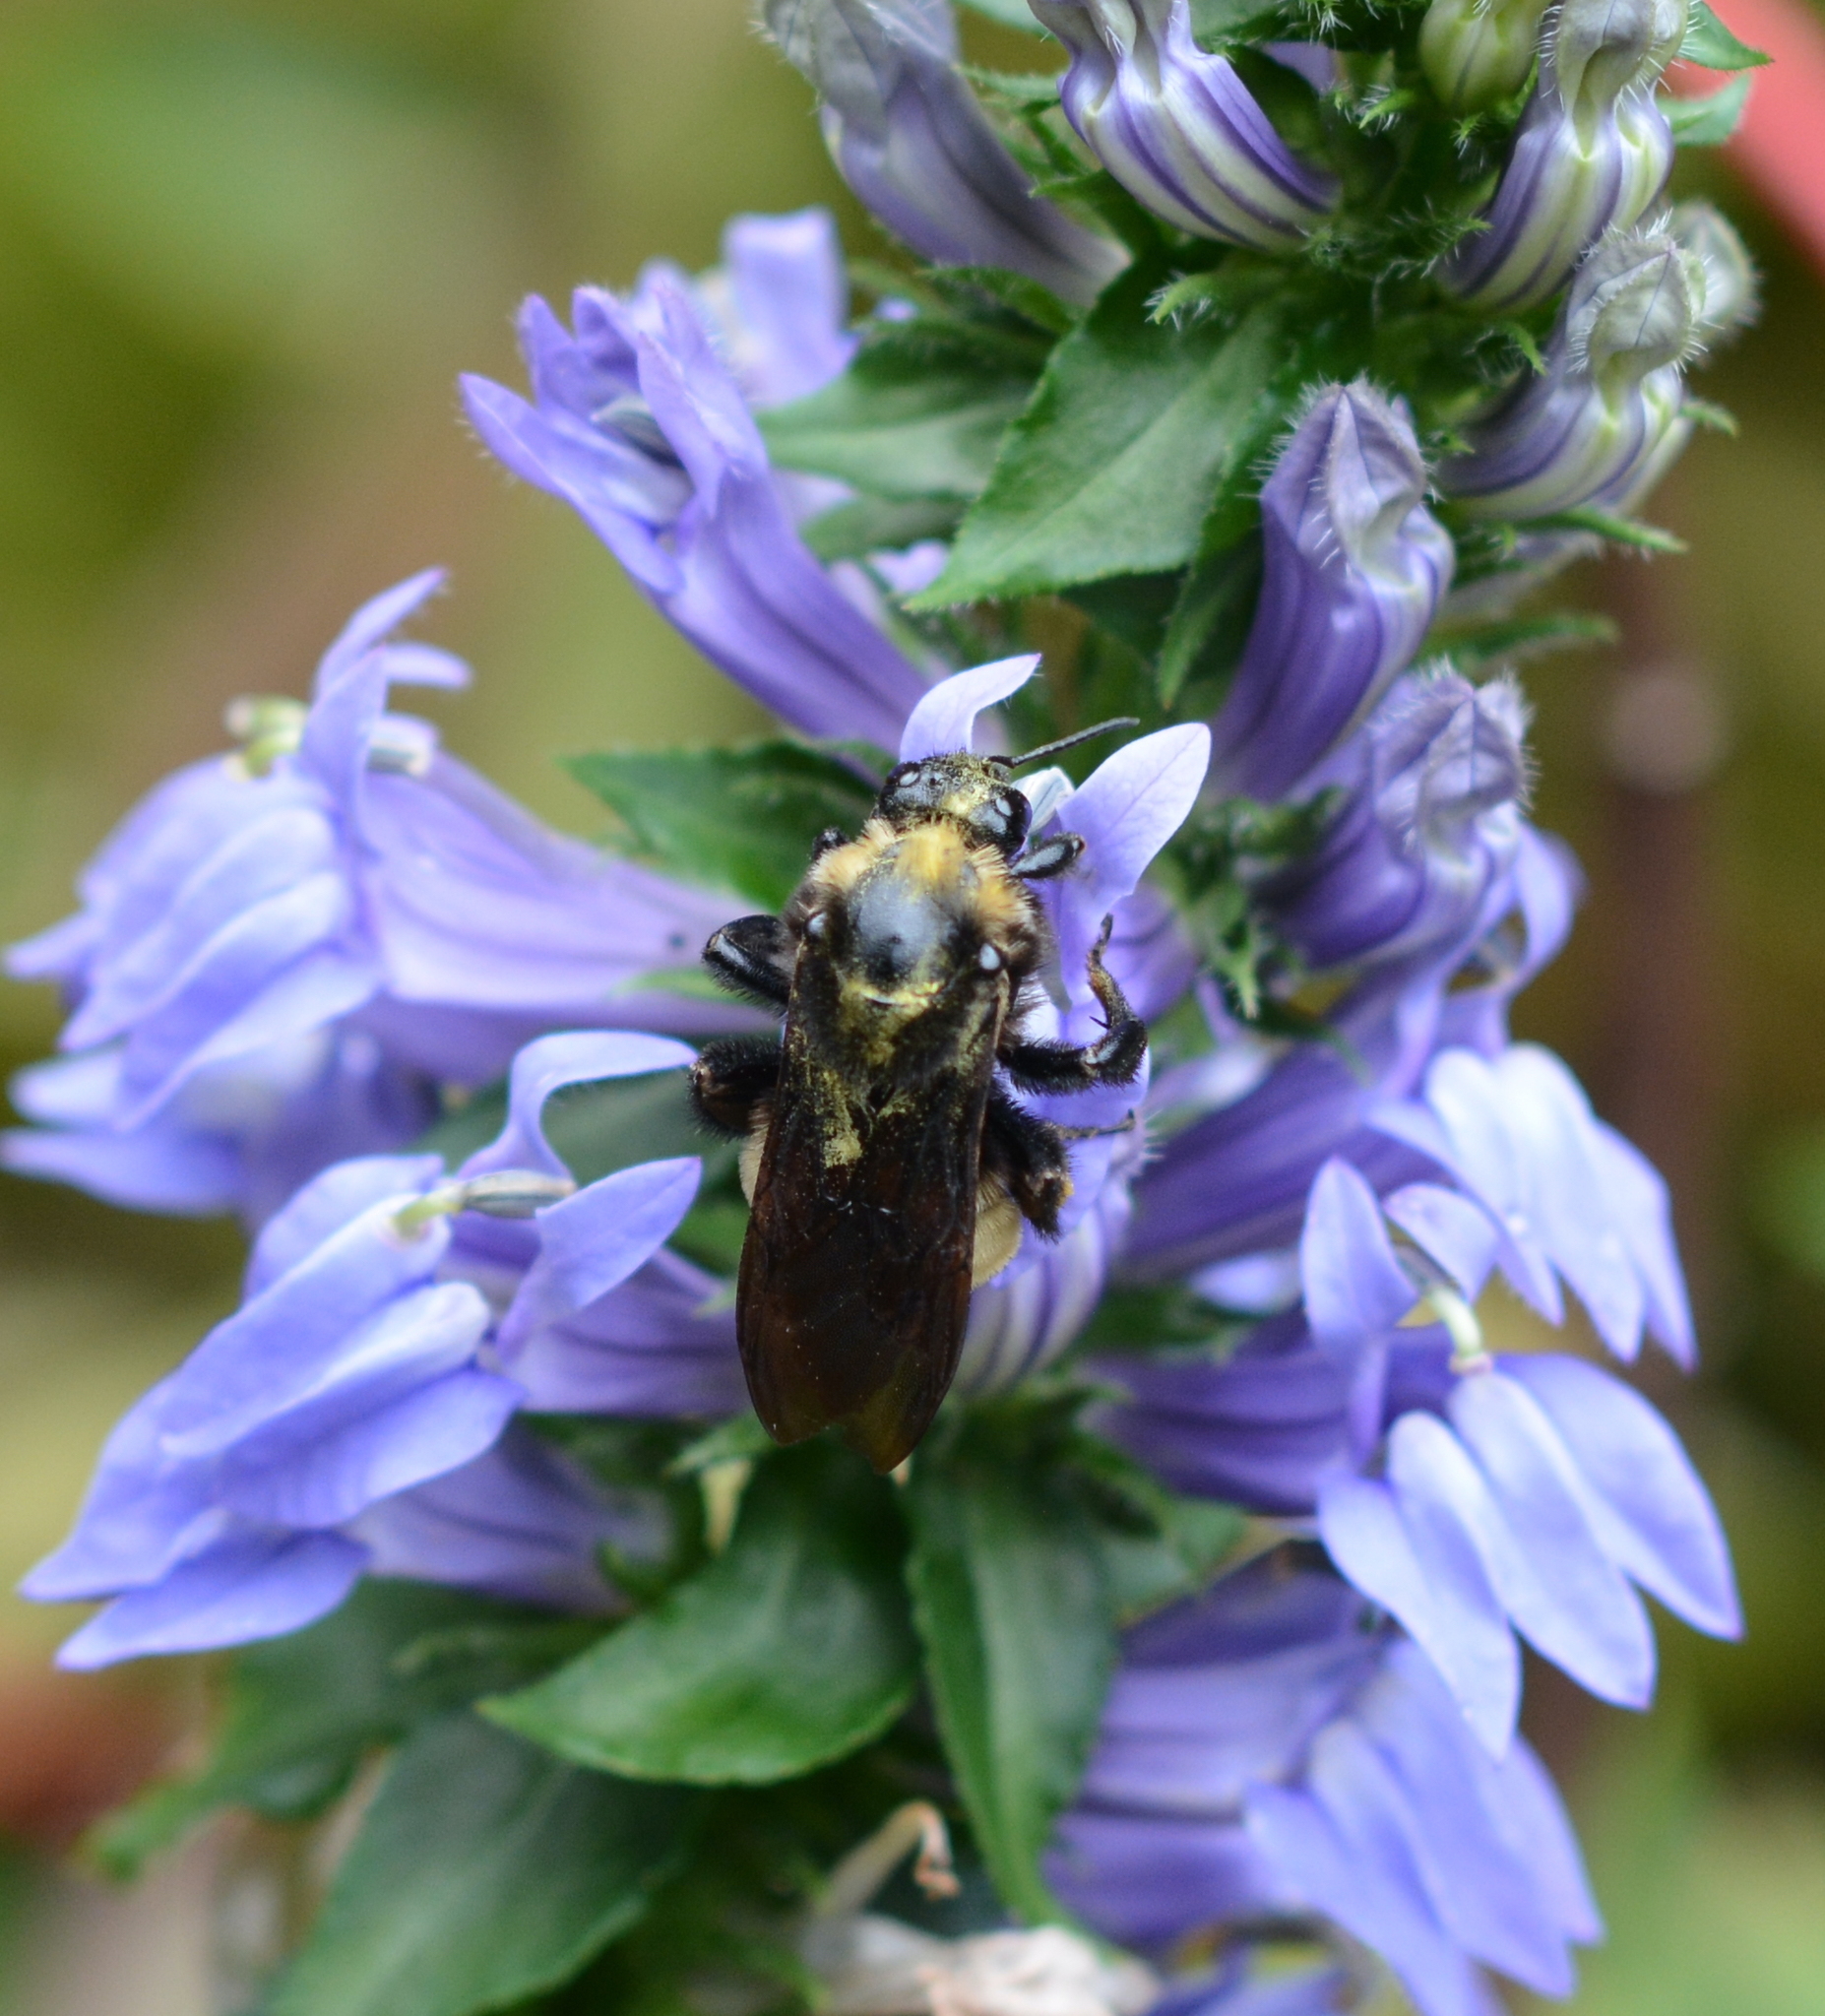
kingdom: Animalia
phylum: Arthropoda
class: Insecta
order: Hymenoptera
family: Apidae
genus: Bombus
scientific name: Bombus pensylvanicus
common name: Bumble bee
